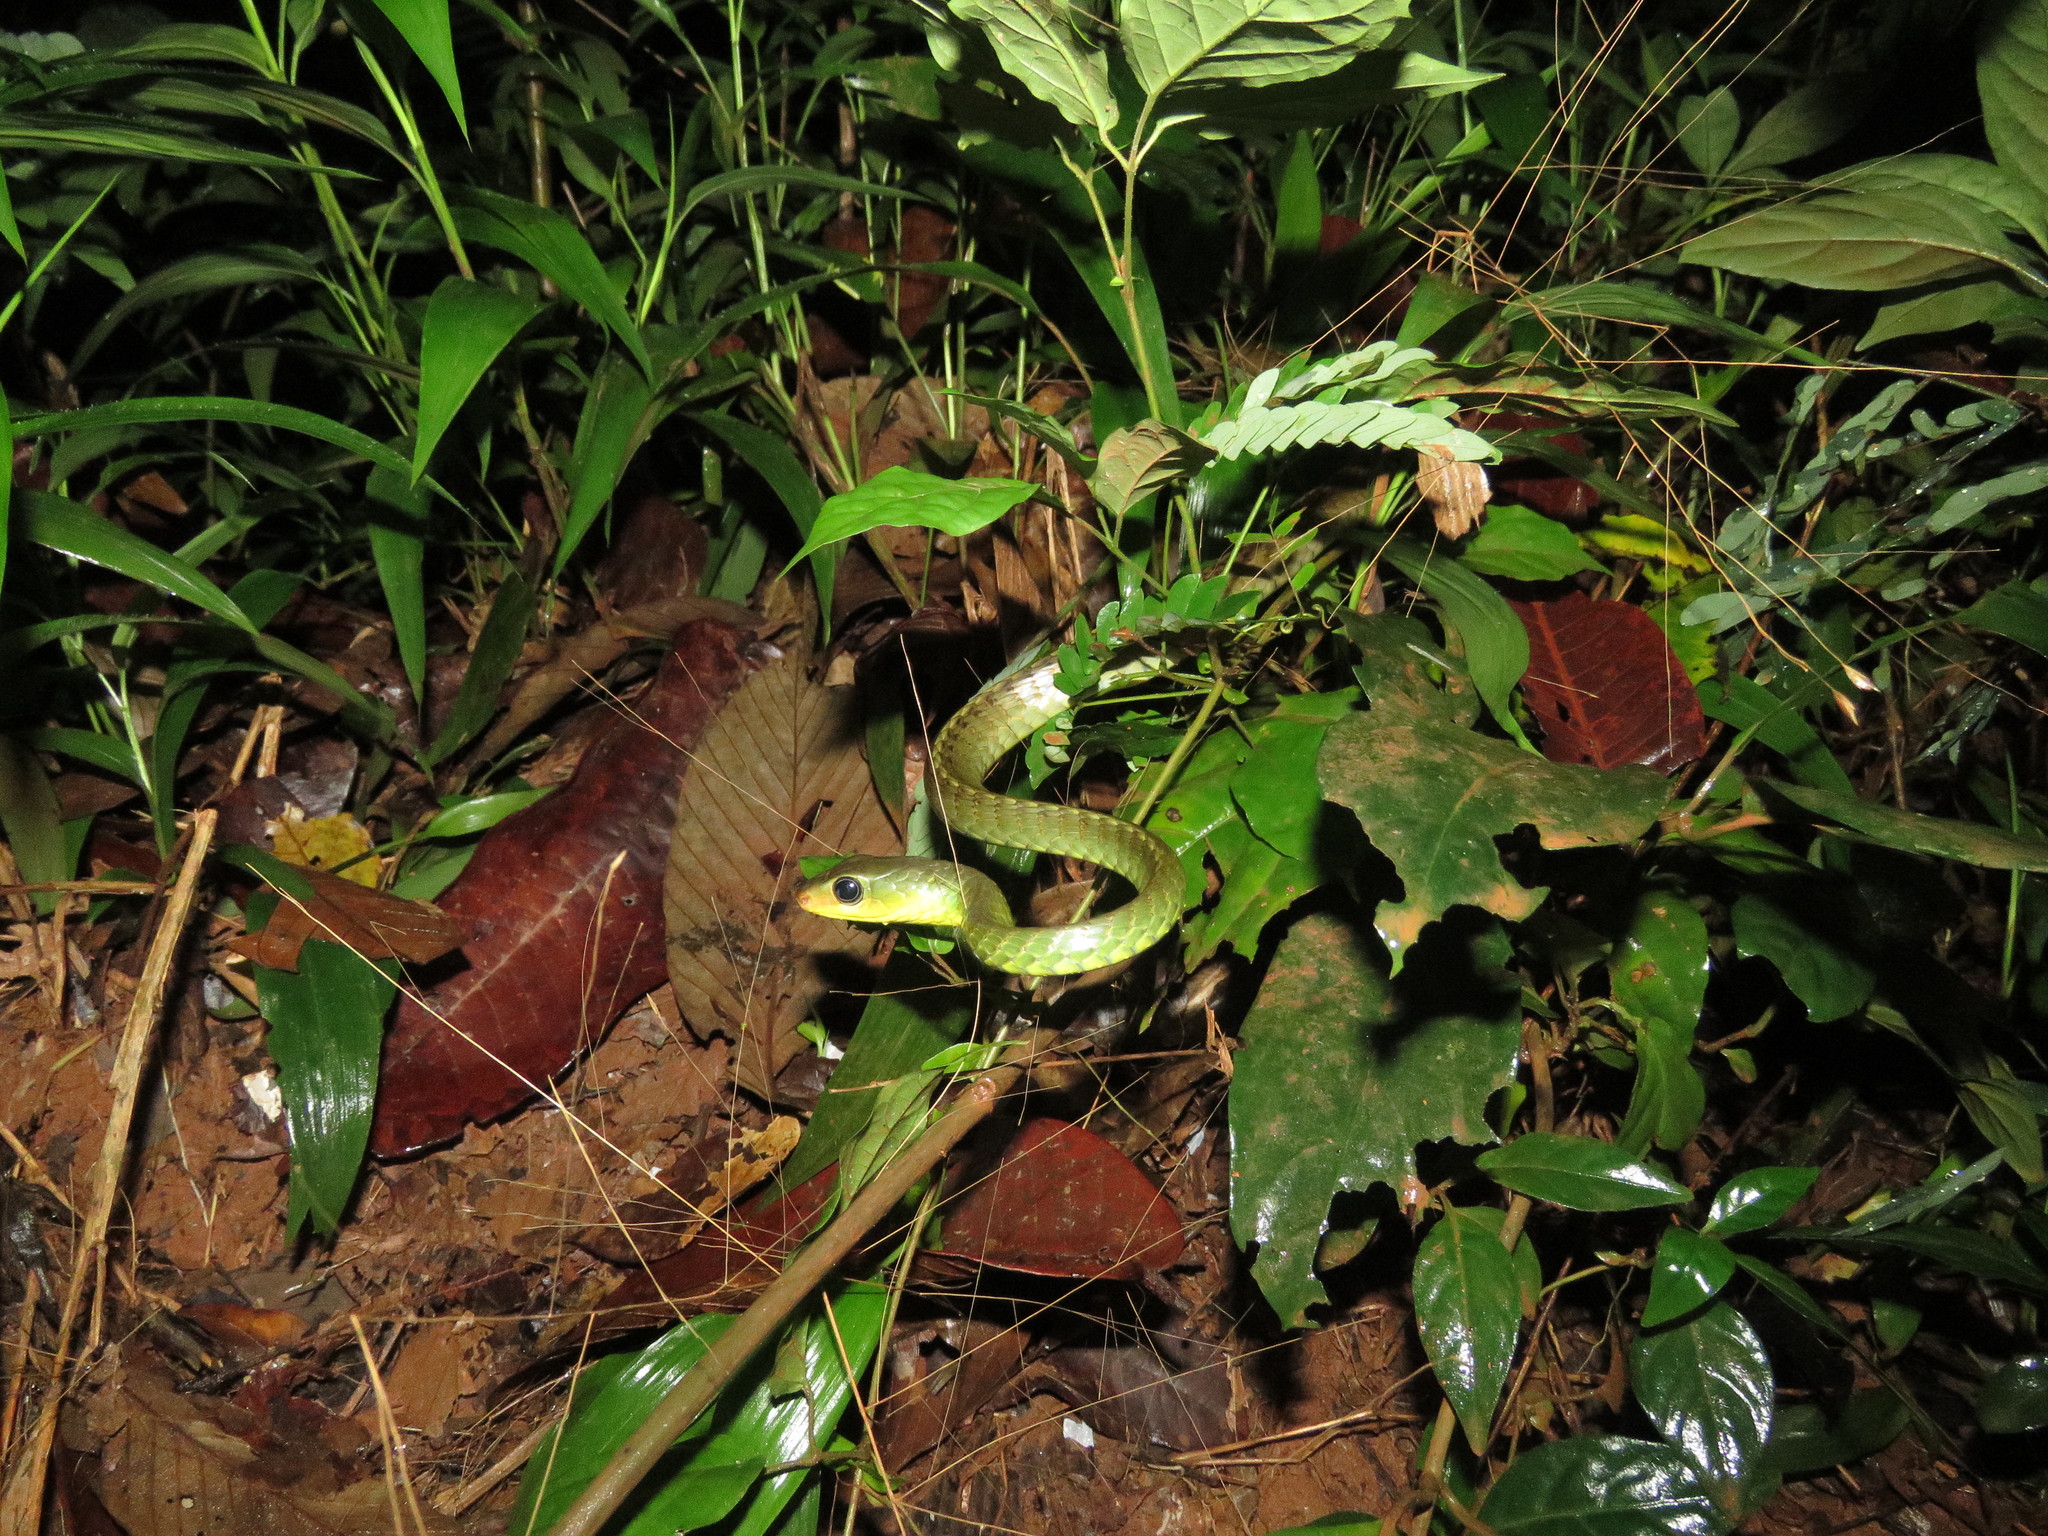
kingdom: Animalia
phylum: Chordata
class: Squamata
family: Colubridae
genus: Chironius
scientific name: Chironius multiventris
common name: South american sipo
